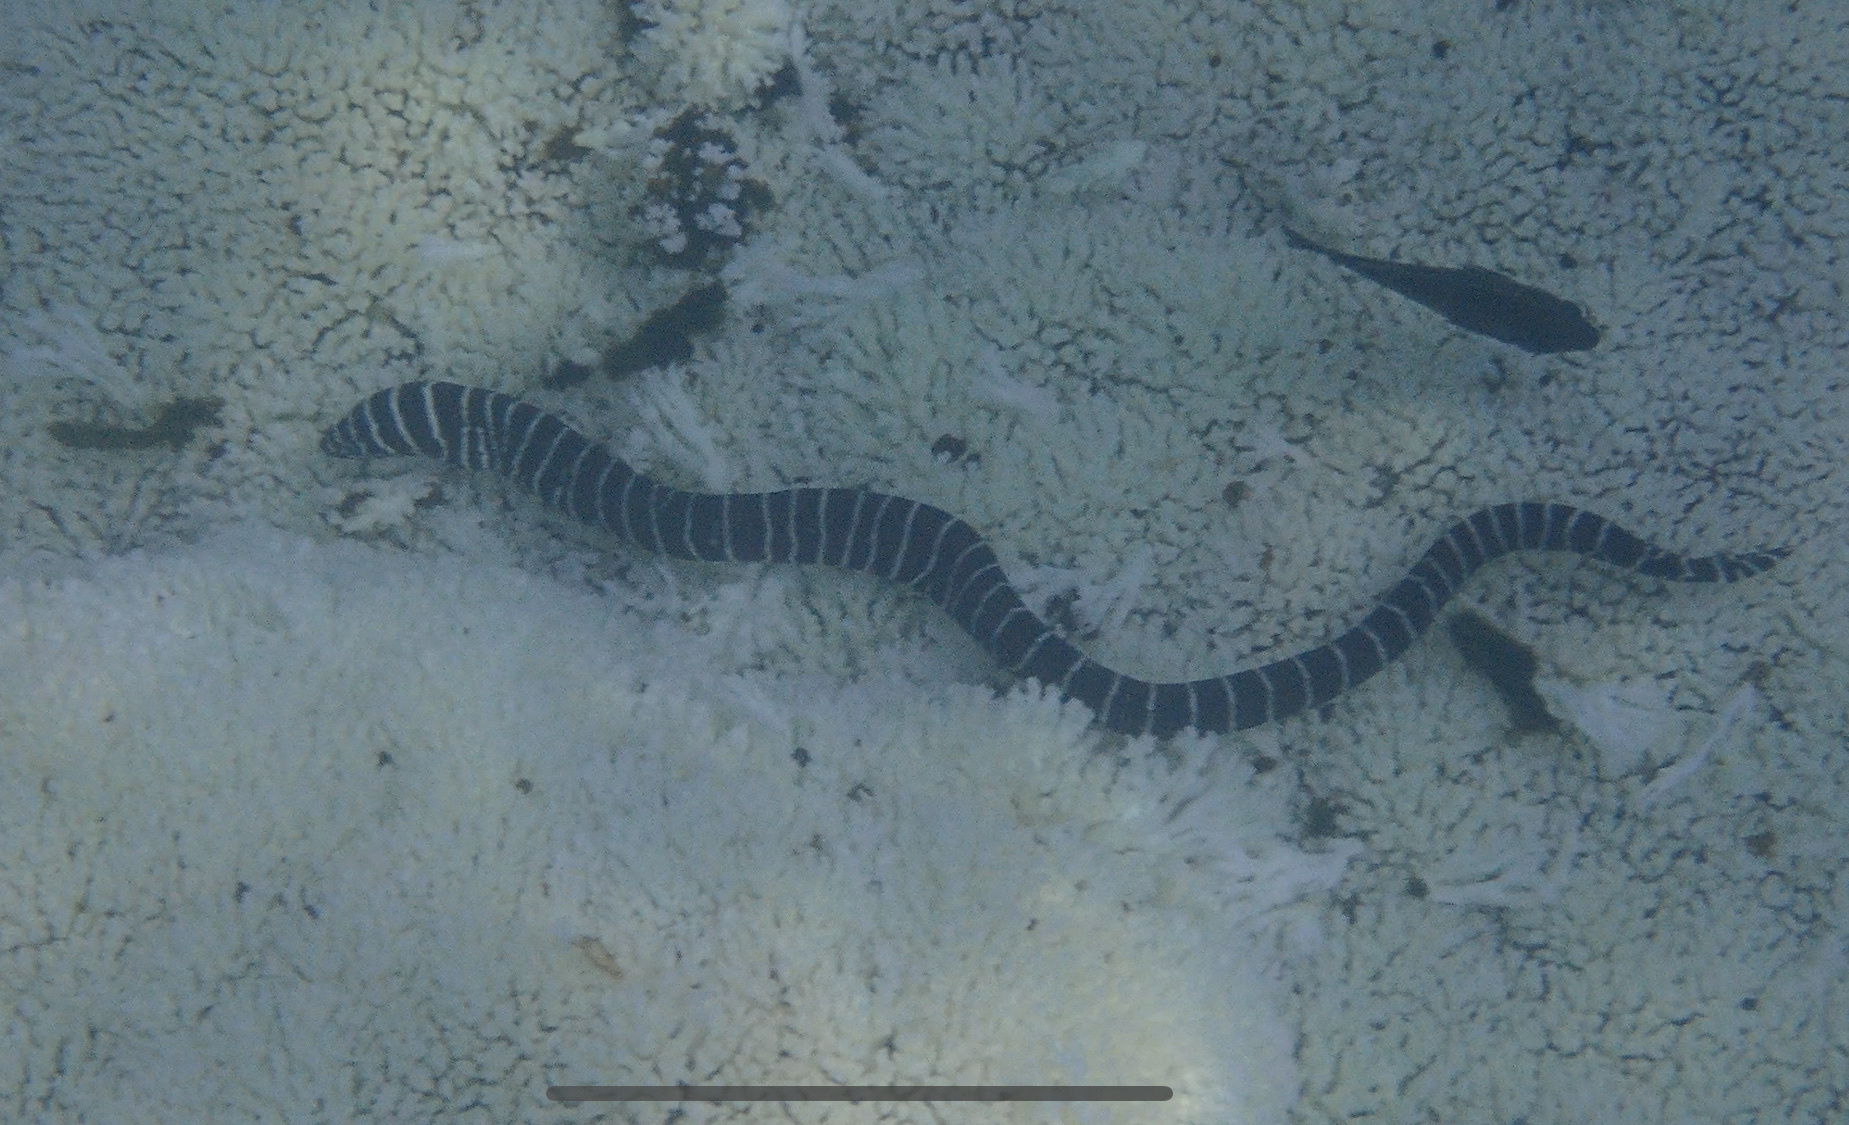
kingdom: Animalia
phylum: Chordata
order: Anguilliformes
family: Muraenidae
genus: Gymnomuraena
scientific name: Gymnomuraena zebra
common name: Zebra moray
